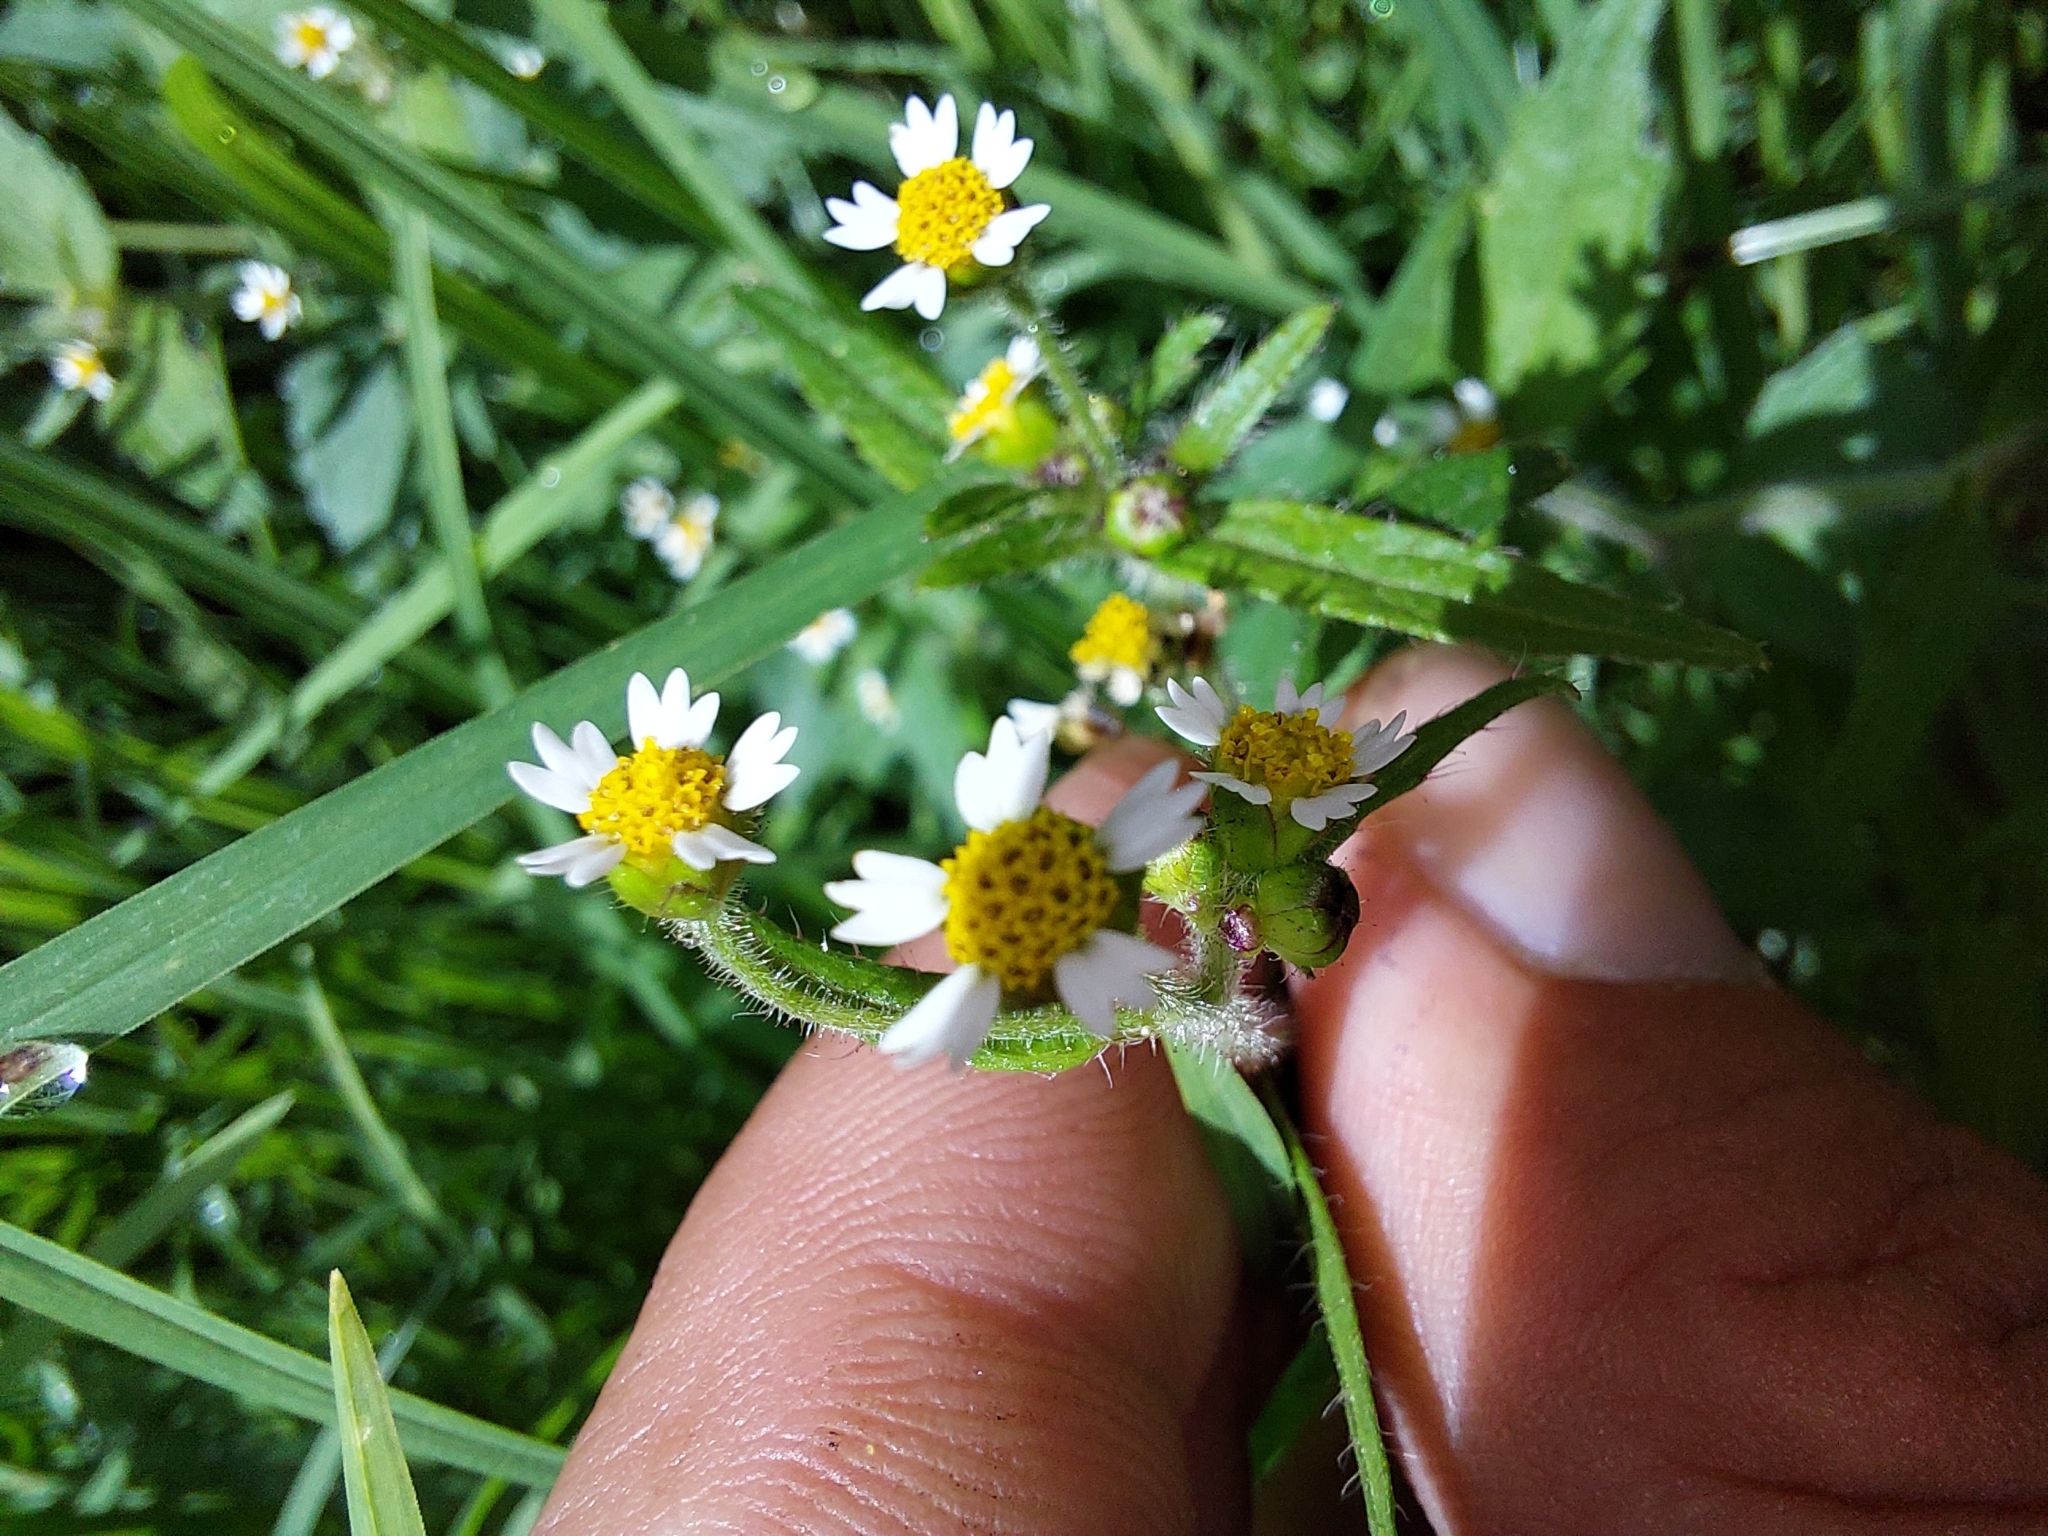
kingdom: Plantae
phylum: Tracheophyta
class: Magnoliopsida
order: Asterales
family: Asteraceae
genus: Galinsoga
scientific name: Galinsoga quadriradiata
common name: Shaggy soldier
